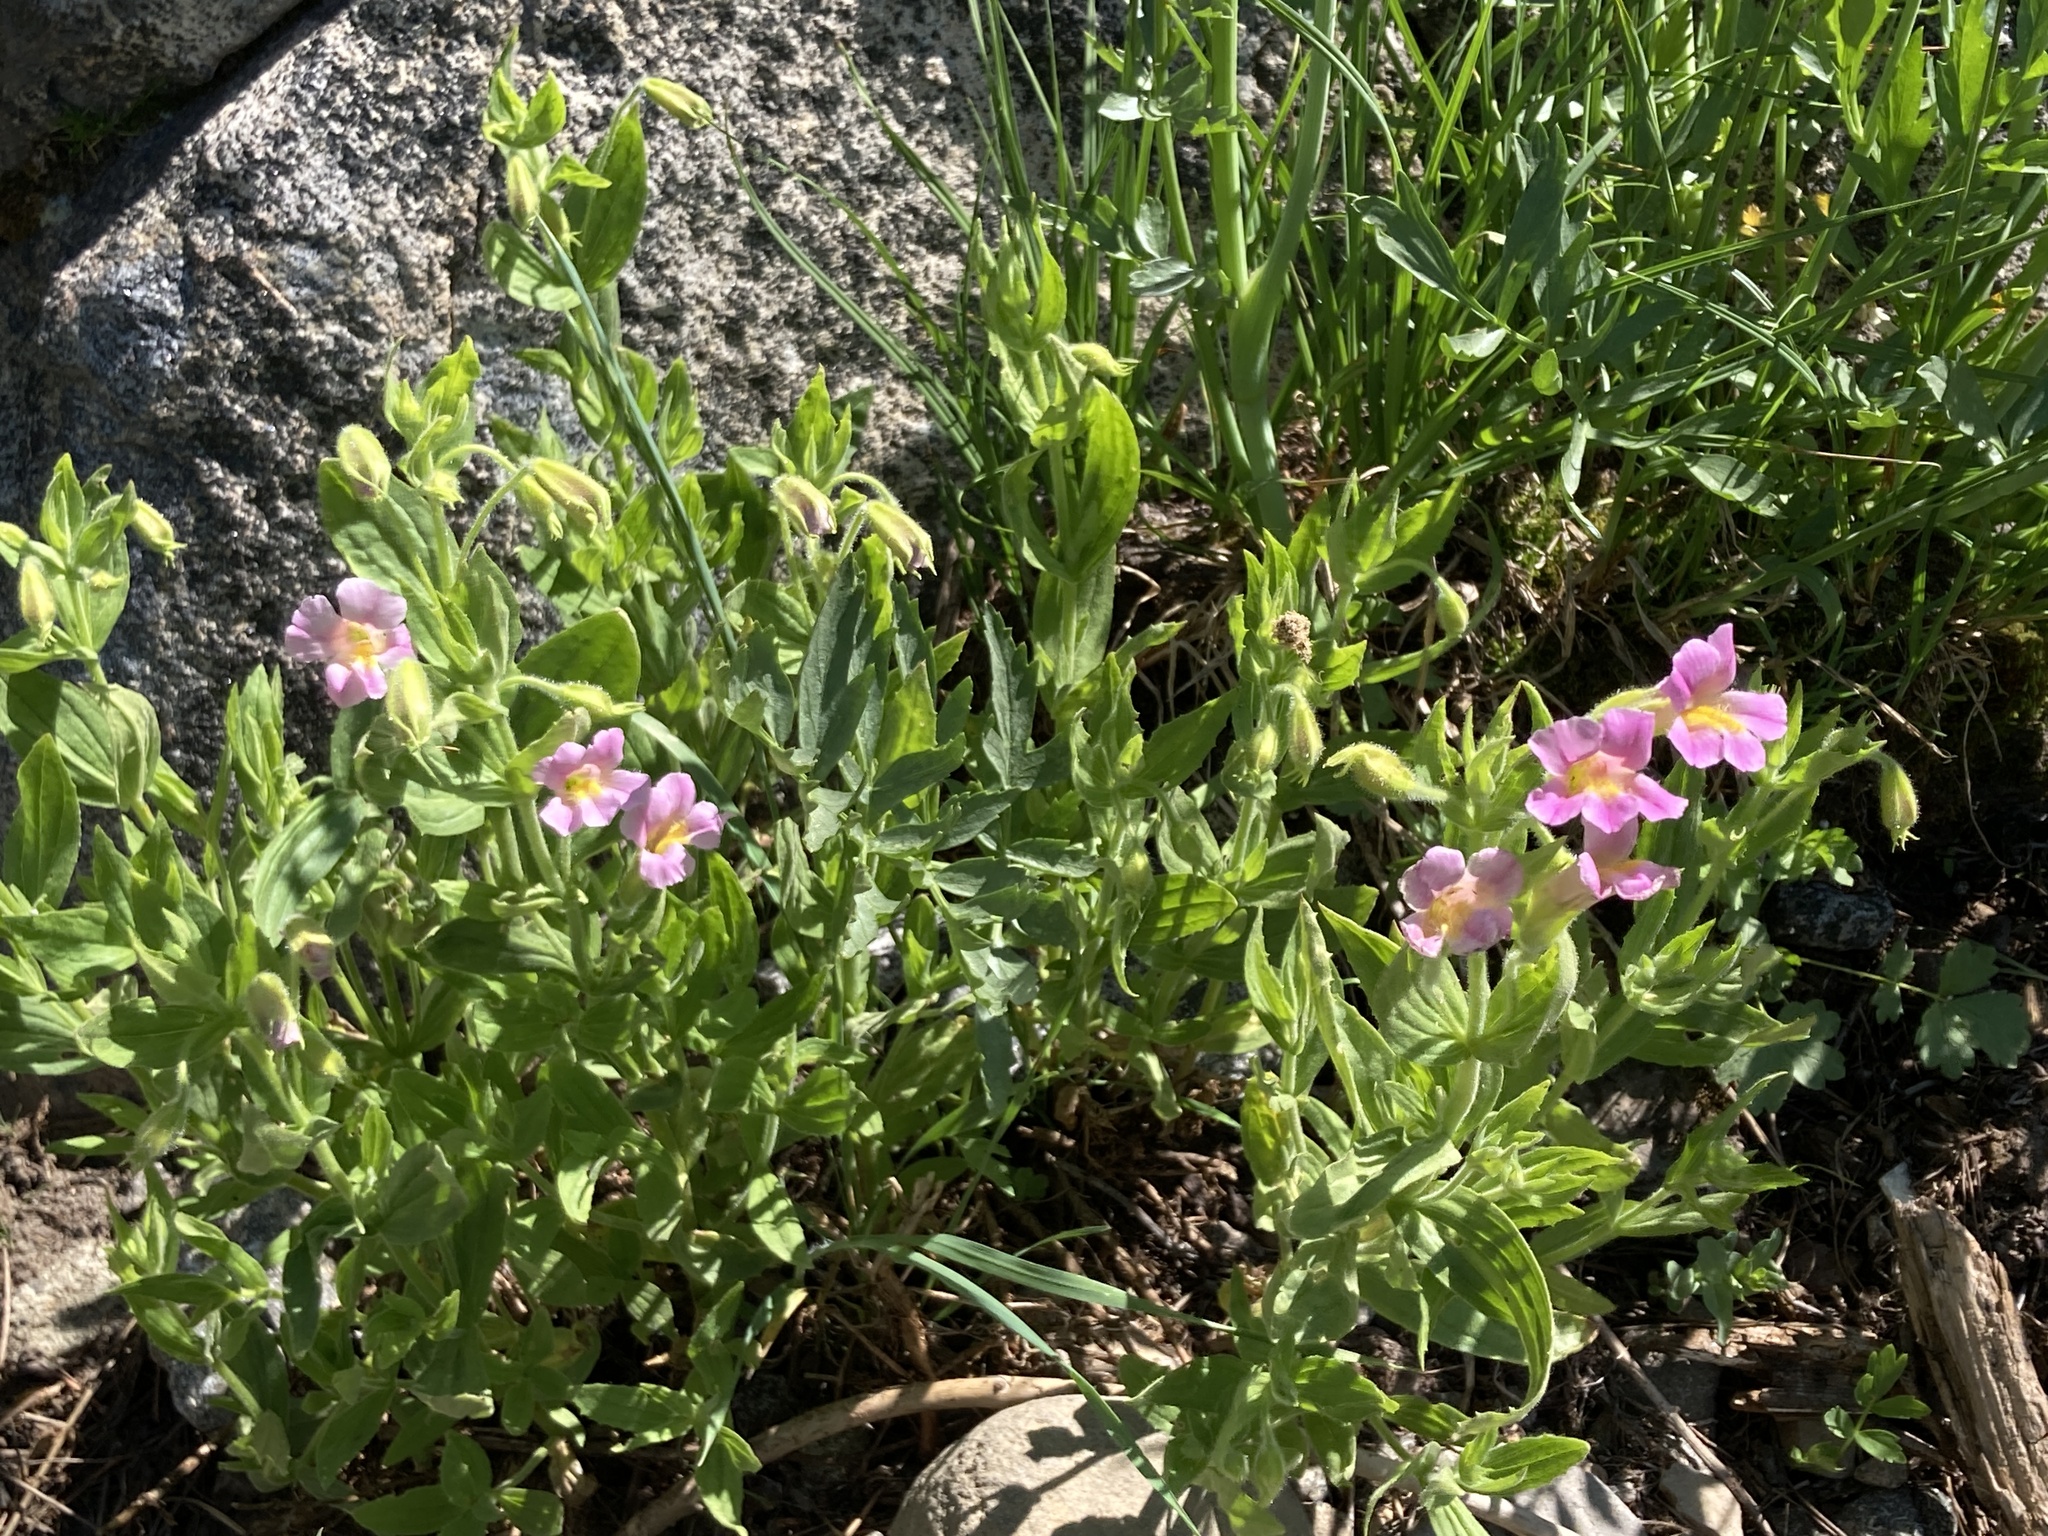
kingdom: Plantae
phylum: Tracheophyta
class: Magnoliopsida
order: Lamiales
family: Phrymaceae
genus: Erythranthe
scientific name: Erythranthe erubescens
